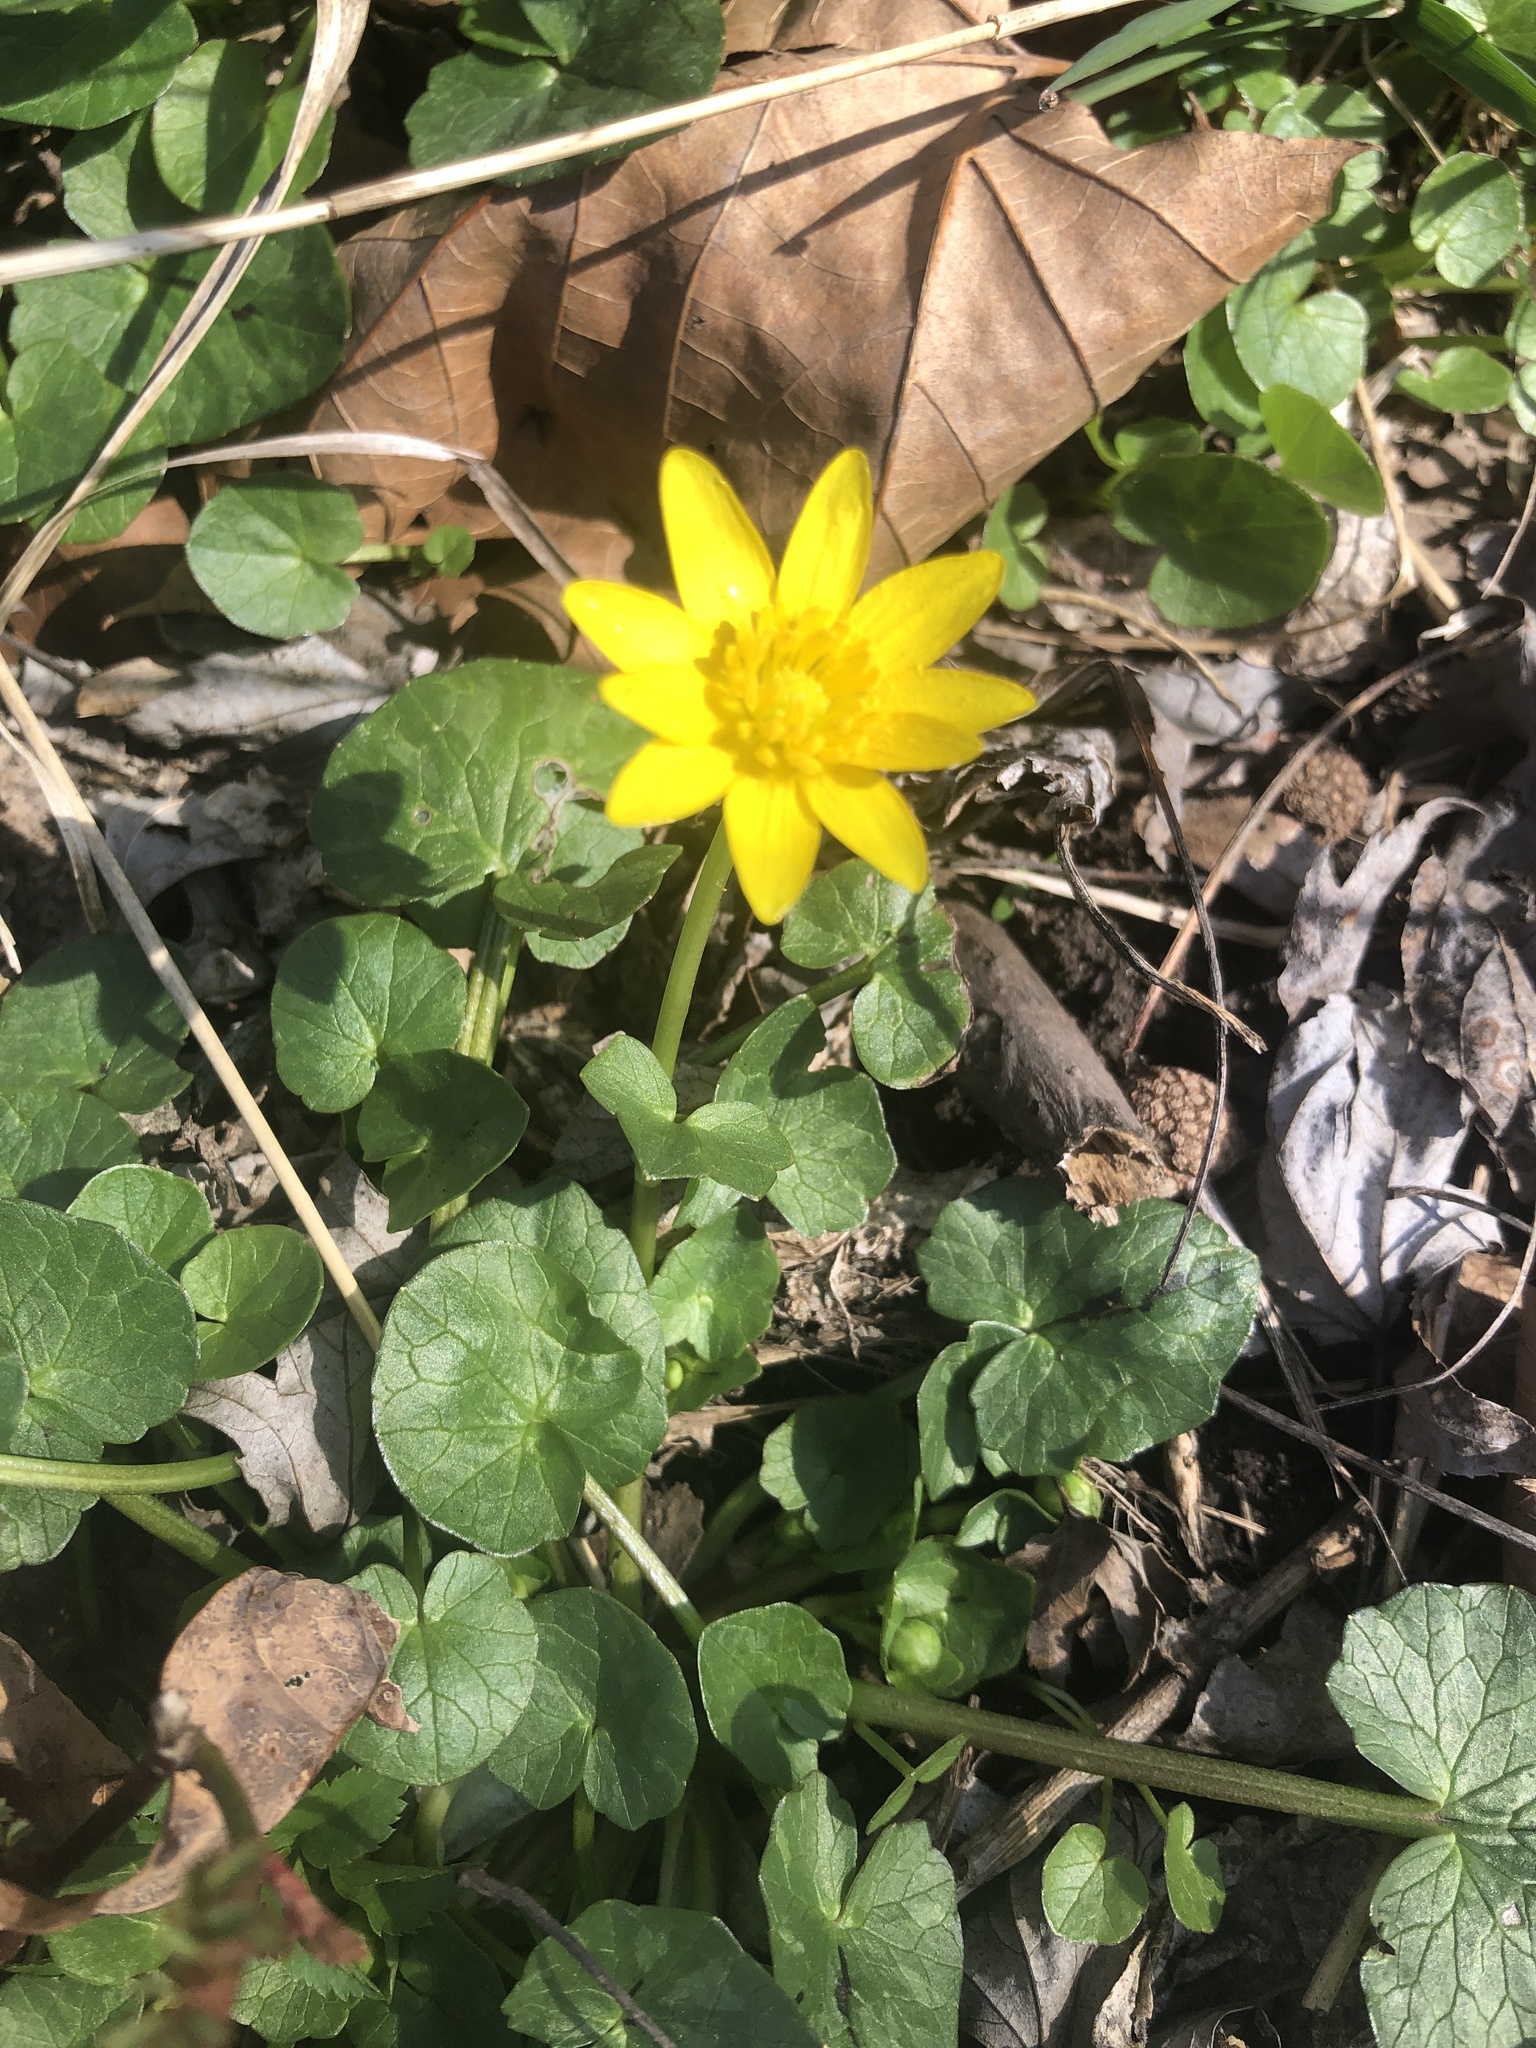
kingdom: Plantae
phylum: Tracheophyta
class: Magnoliopsida
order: Ranunculales
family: Ranunculaceae
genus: Ficaria
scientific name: Ficaria verna
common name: Lesser celandine
